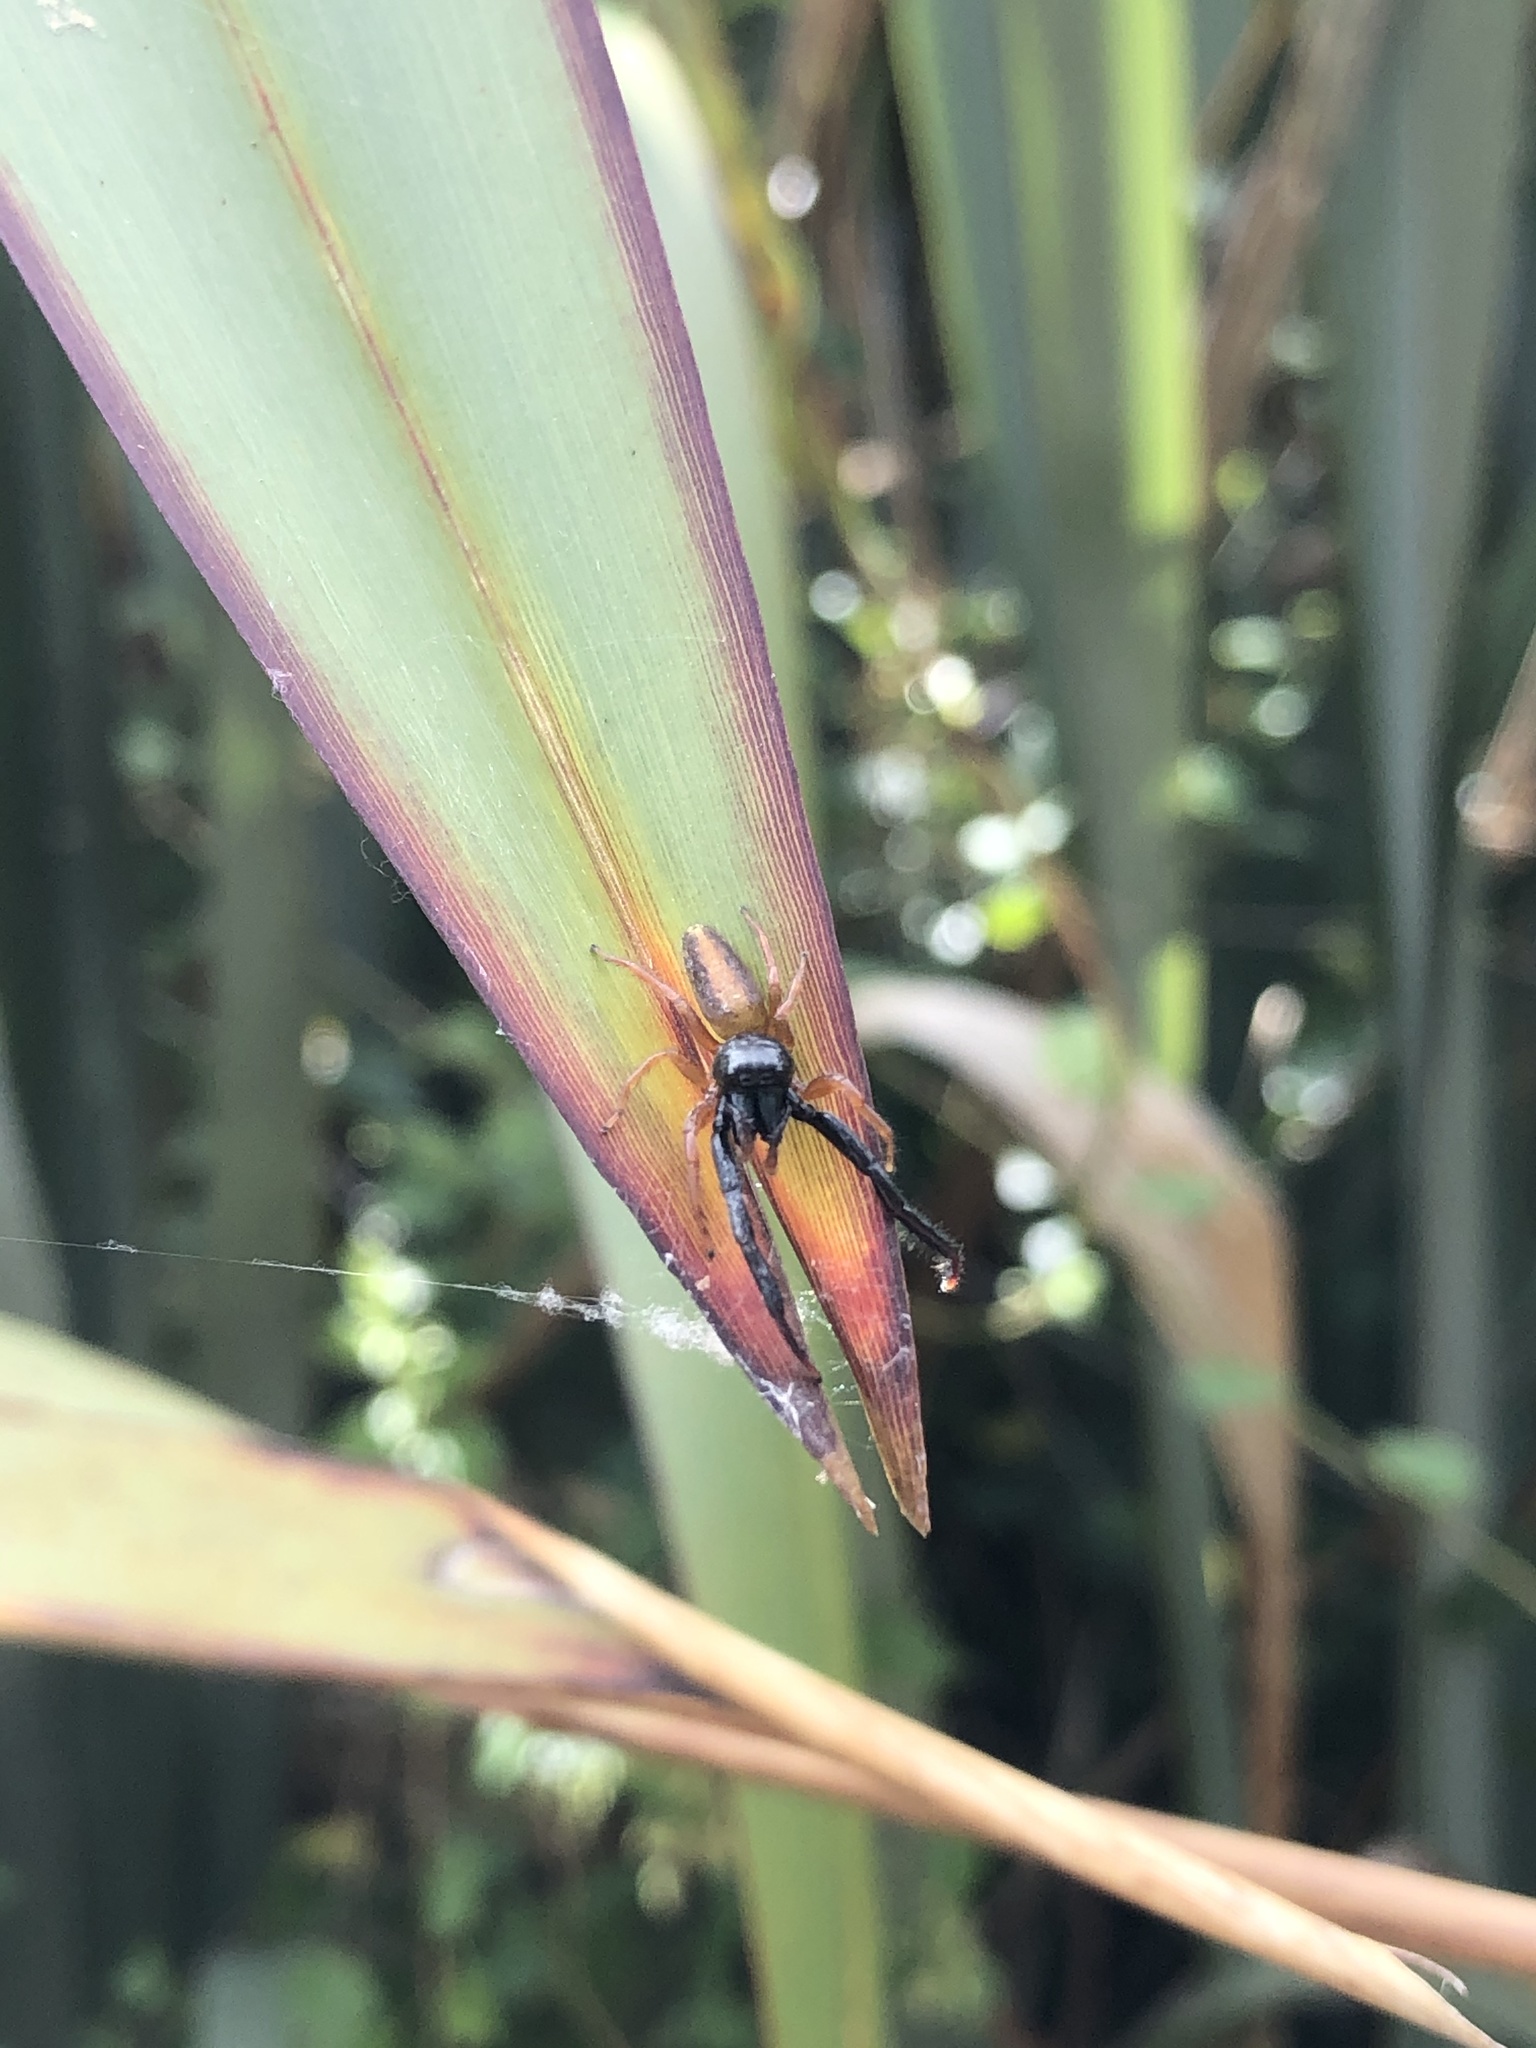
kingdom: Animalia
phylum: Arthropoda
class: Arachnida
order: Araneae
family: Salticidae
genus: Trite
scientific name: Trite planiceps
